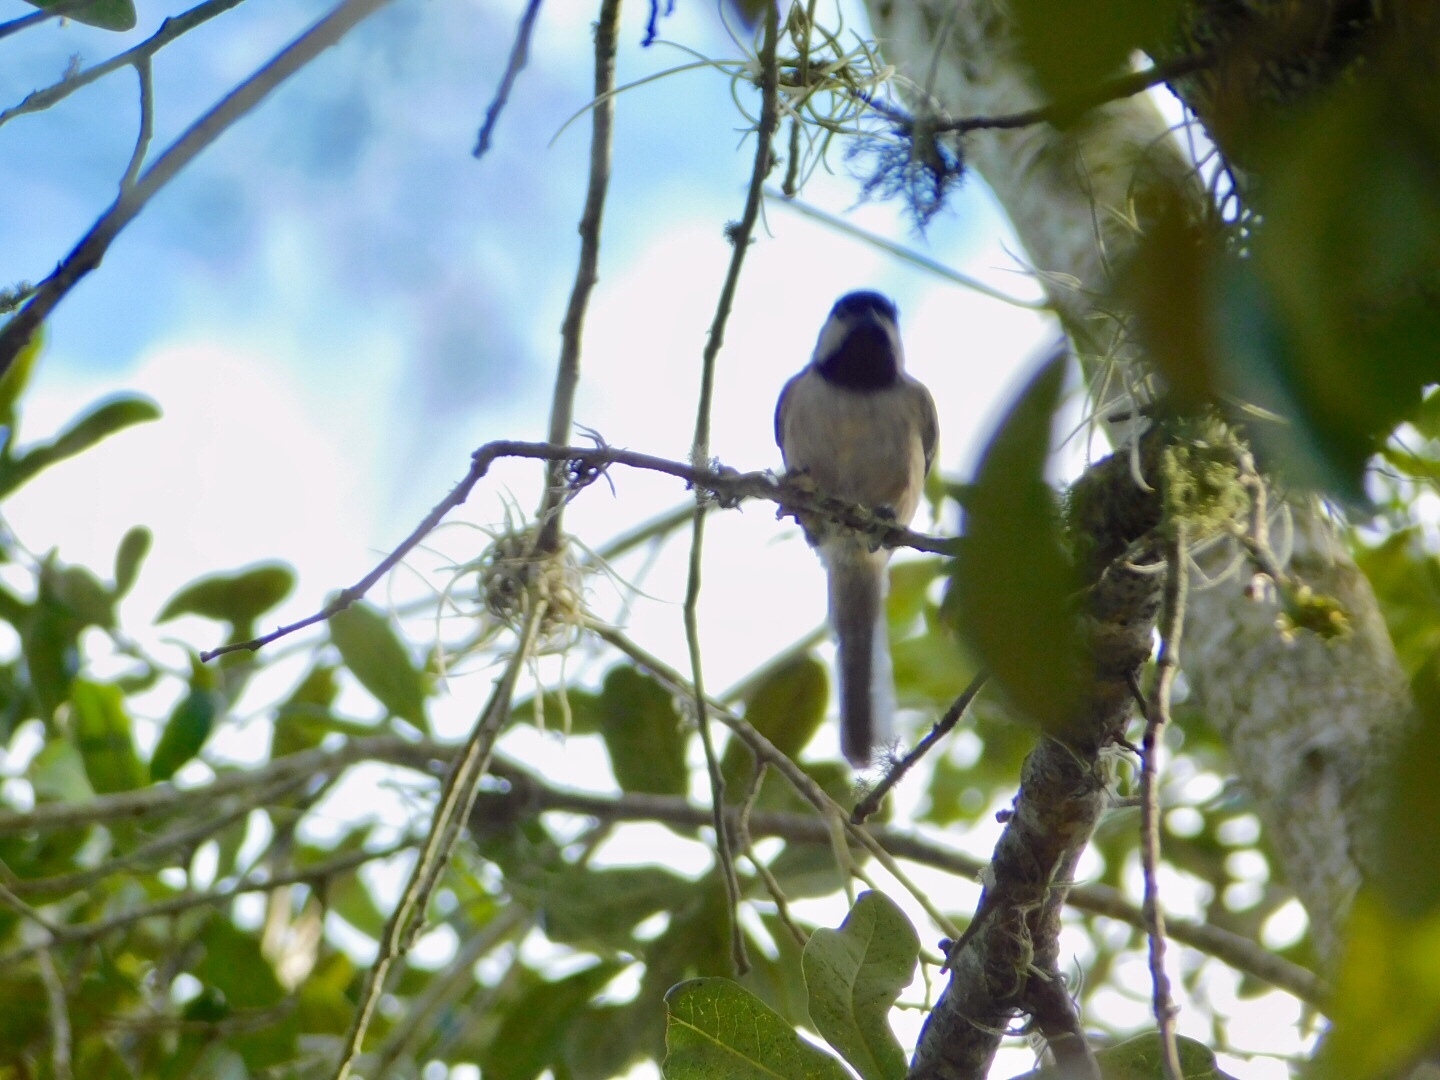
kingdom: Animalia
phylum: Chordata
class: Aves
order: Passeriformes
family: Paridae
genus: Poecile
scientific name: Poecile carolinensis
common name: Carolina chickadee
